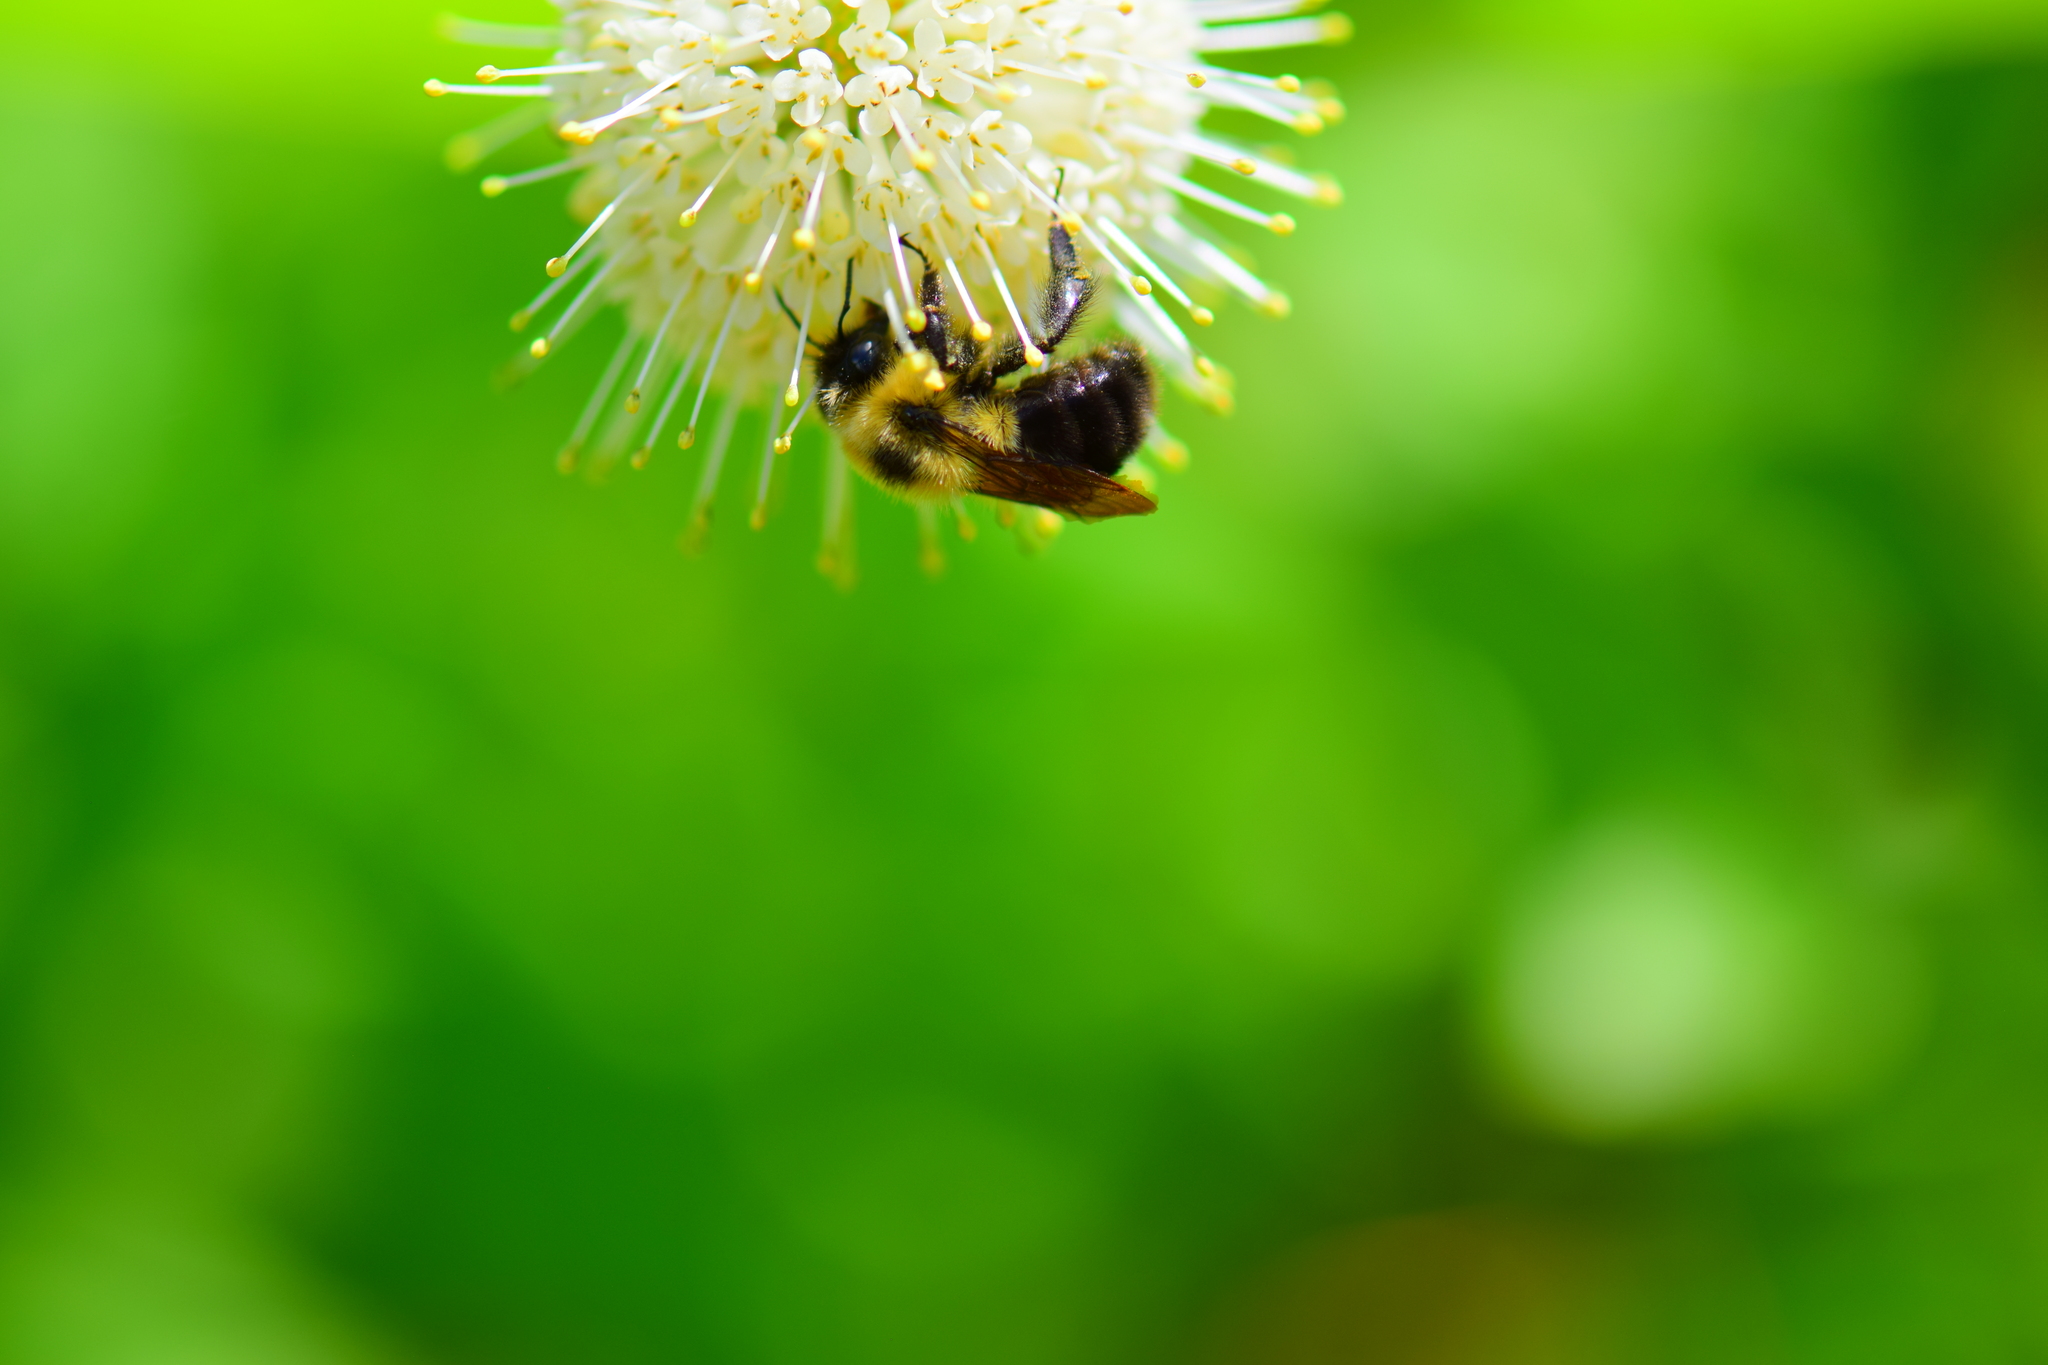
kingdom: Animalia
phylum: Arthropoda
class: Insecta
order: Hymenoptera
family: Apidae
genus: Bombus
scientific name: Bombus bimaculatus
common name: Two-spotted bumble bee
